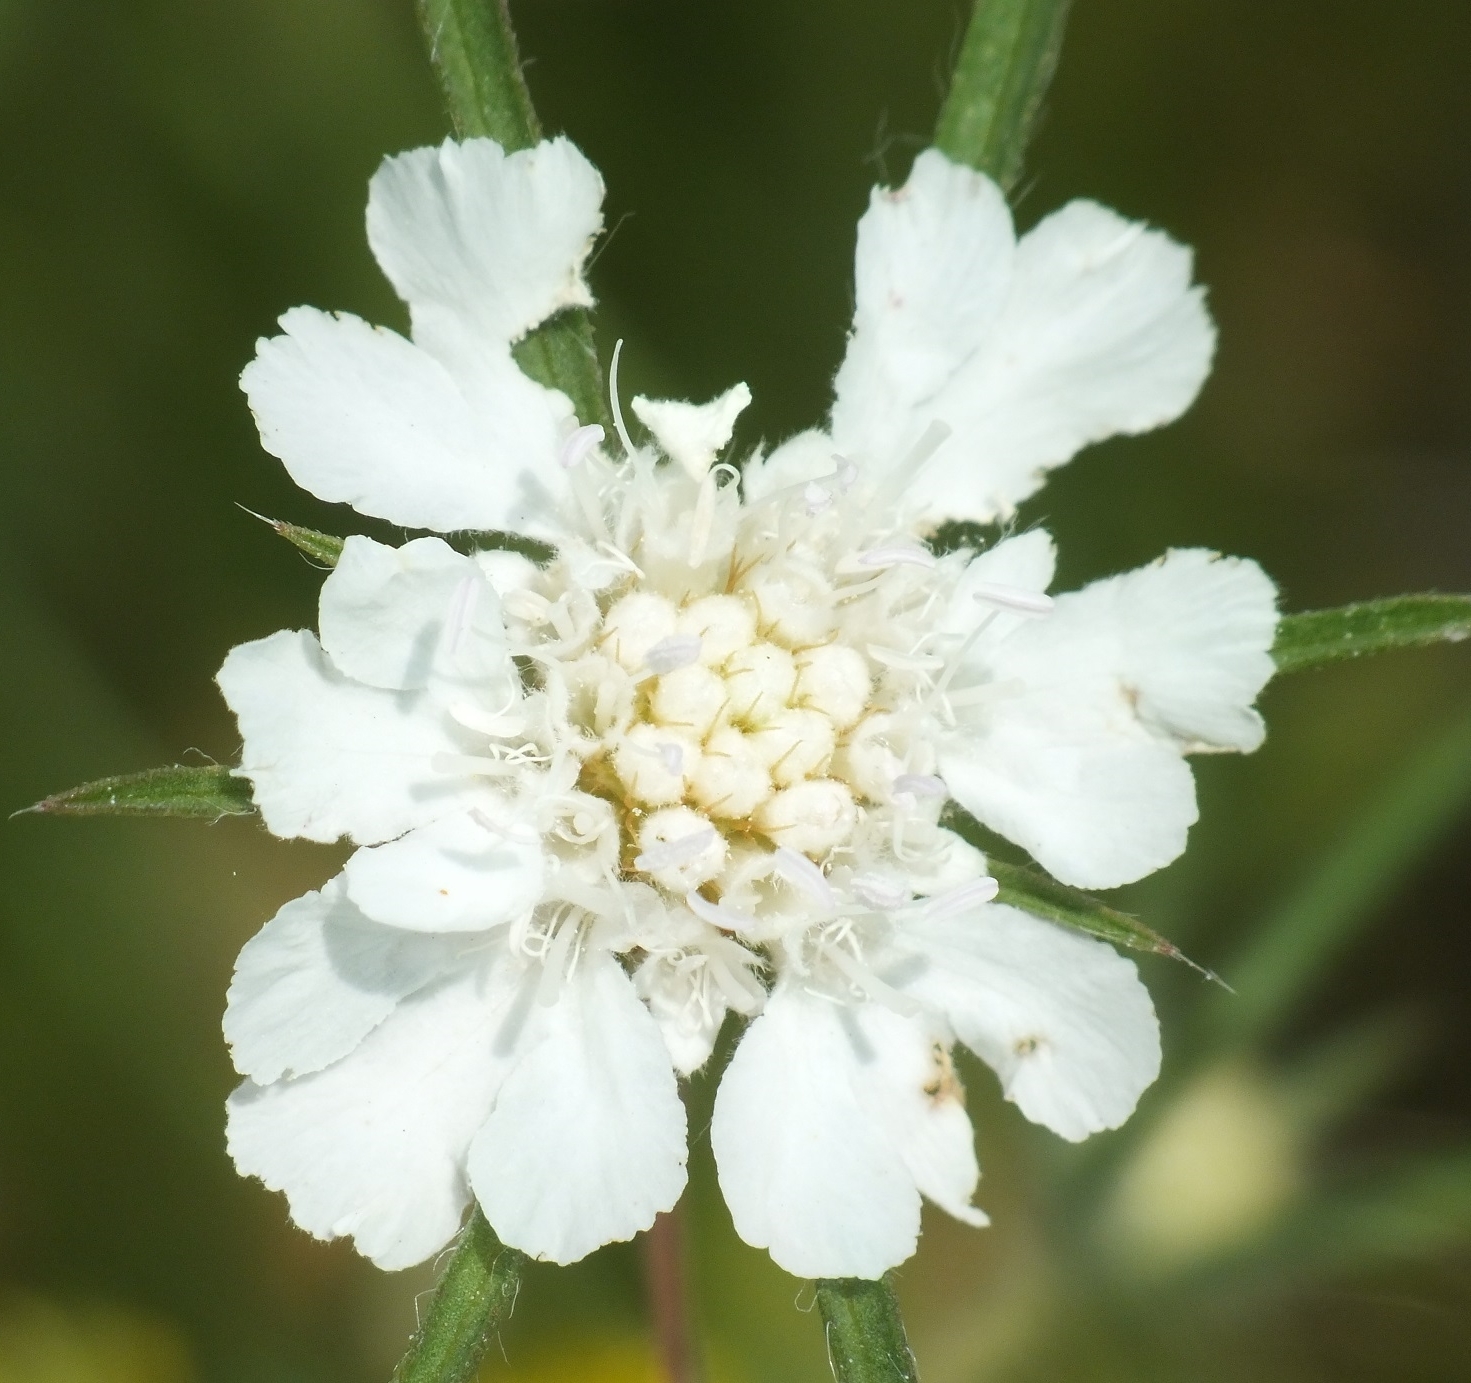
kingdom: Plantae
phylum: Tracheophyta
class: Magnoliopsida
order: Dipsacales
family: Caprifoliaceae
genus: Lomelosia
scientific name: Lomelosia argentea
